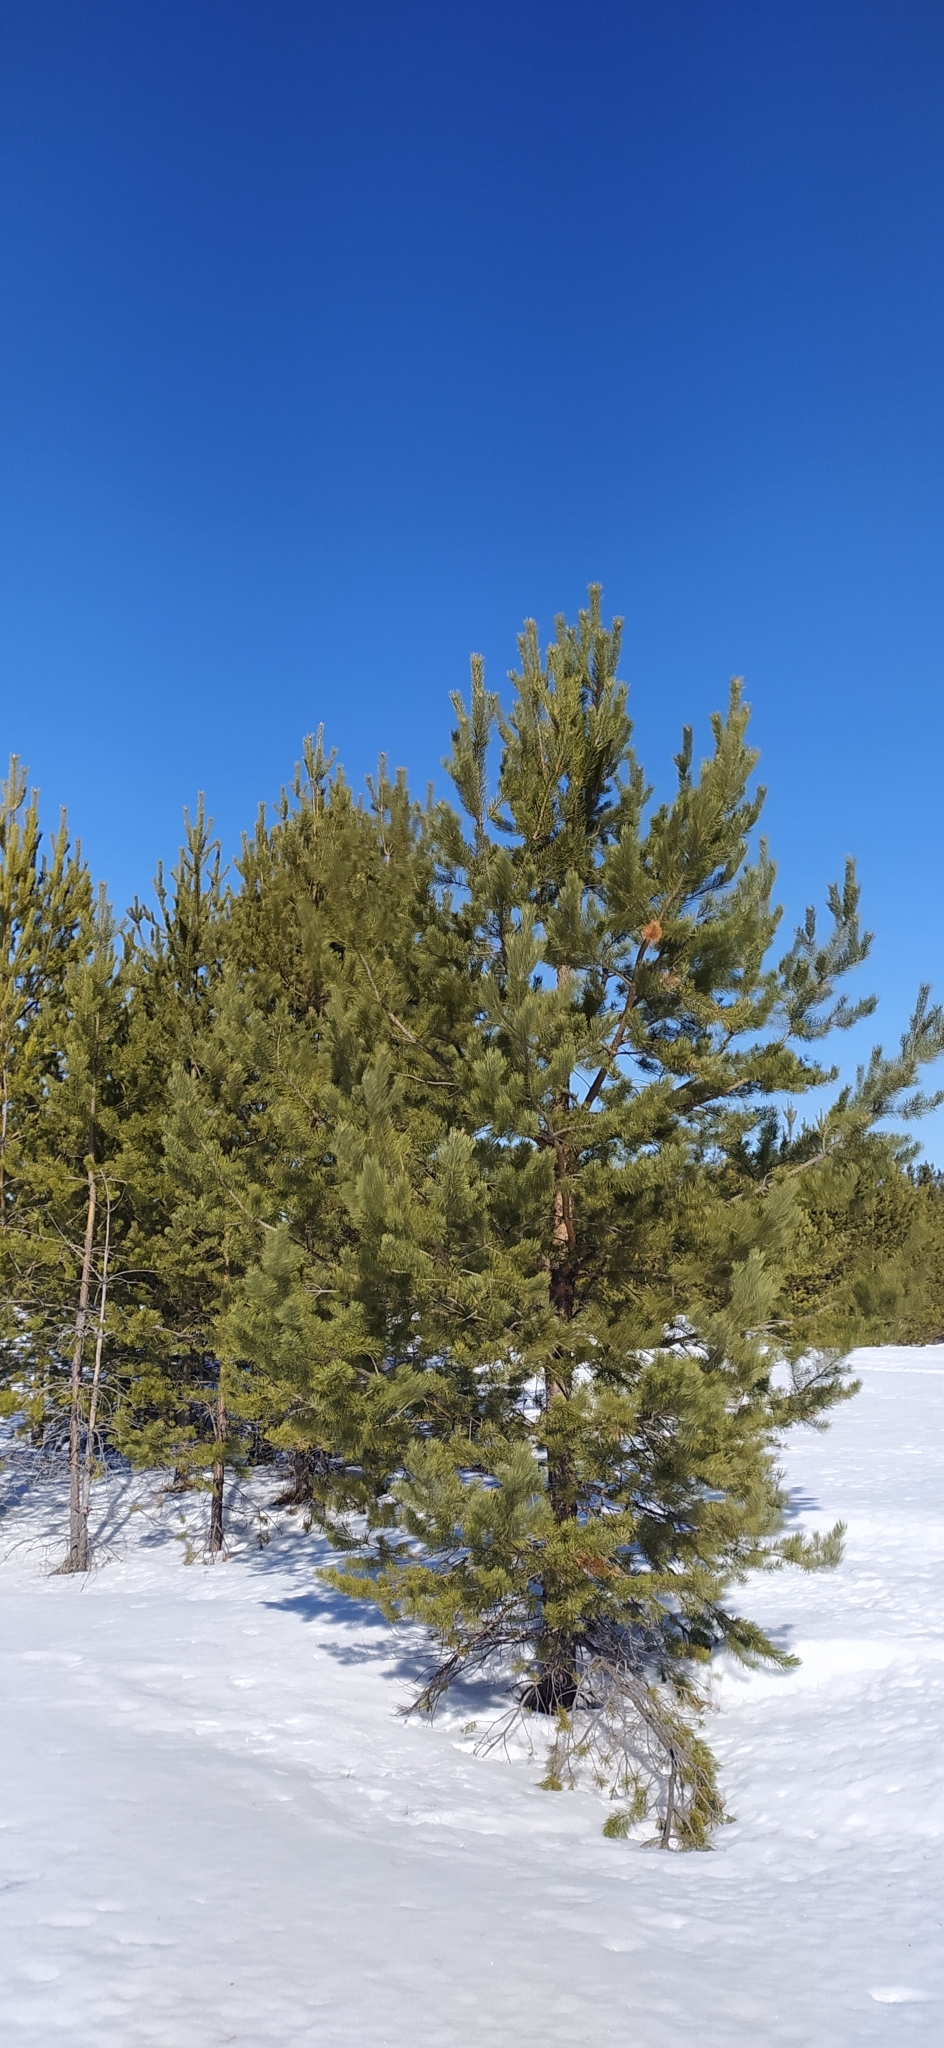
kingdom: Plantae
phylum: Tracheophyta
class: Pinopsida
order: Pinales
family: Pinaceae
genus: Pinus
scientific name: Pinus sylvestris
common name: Scots pine
